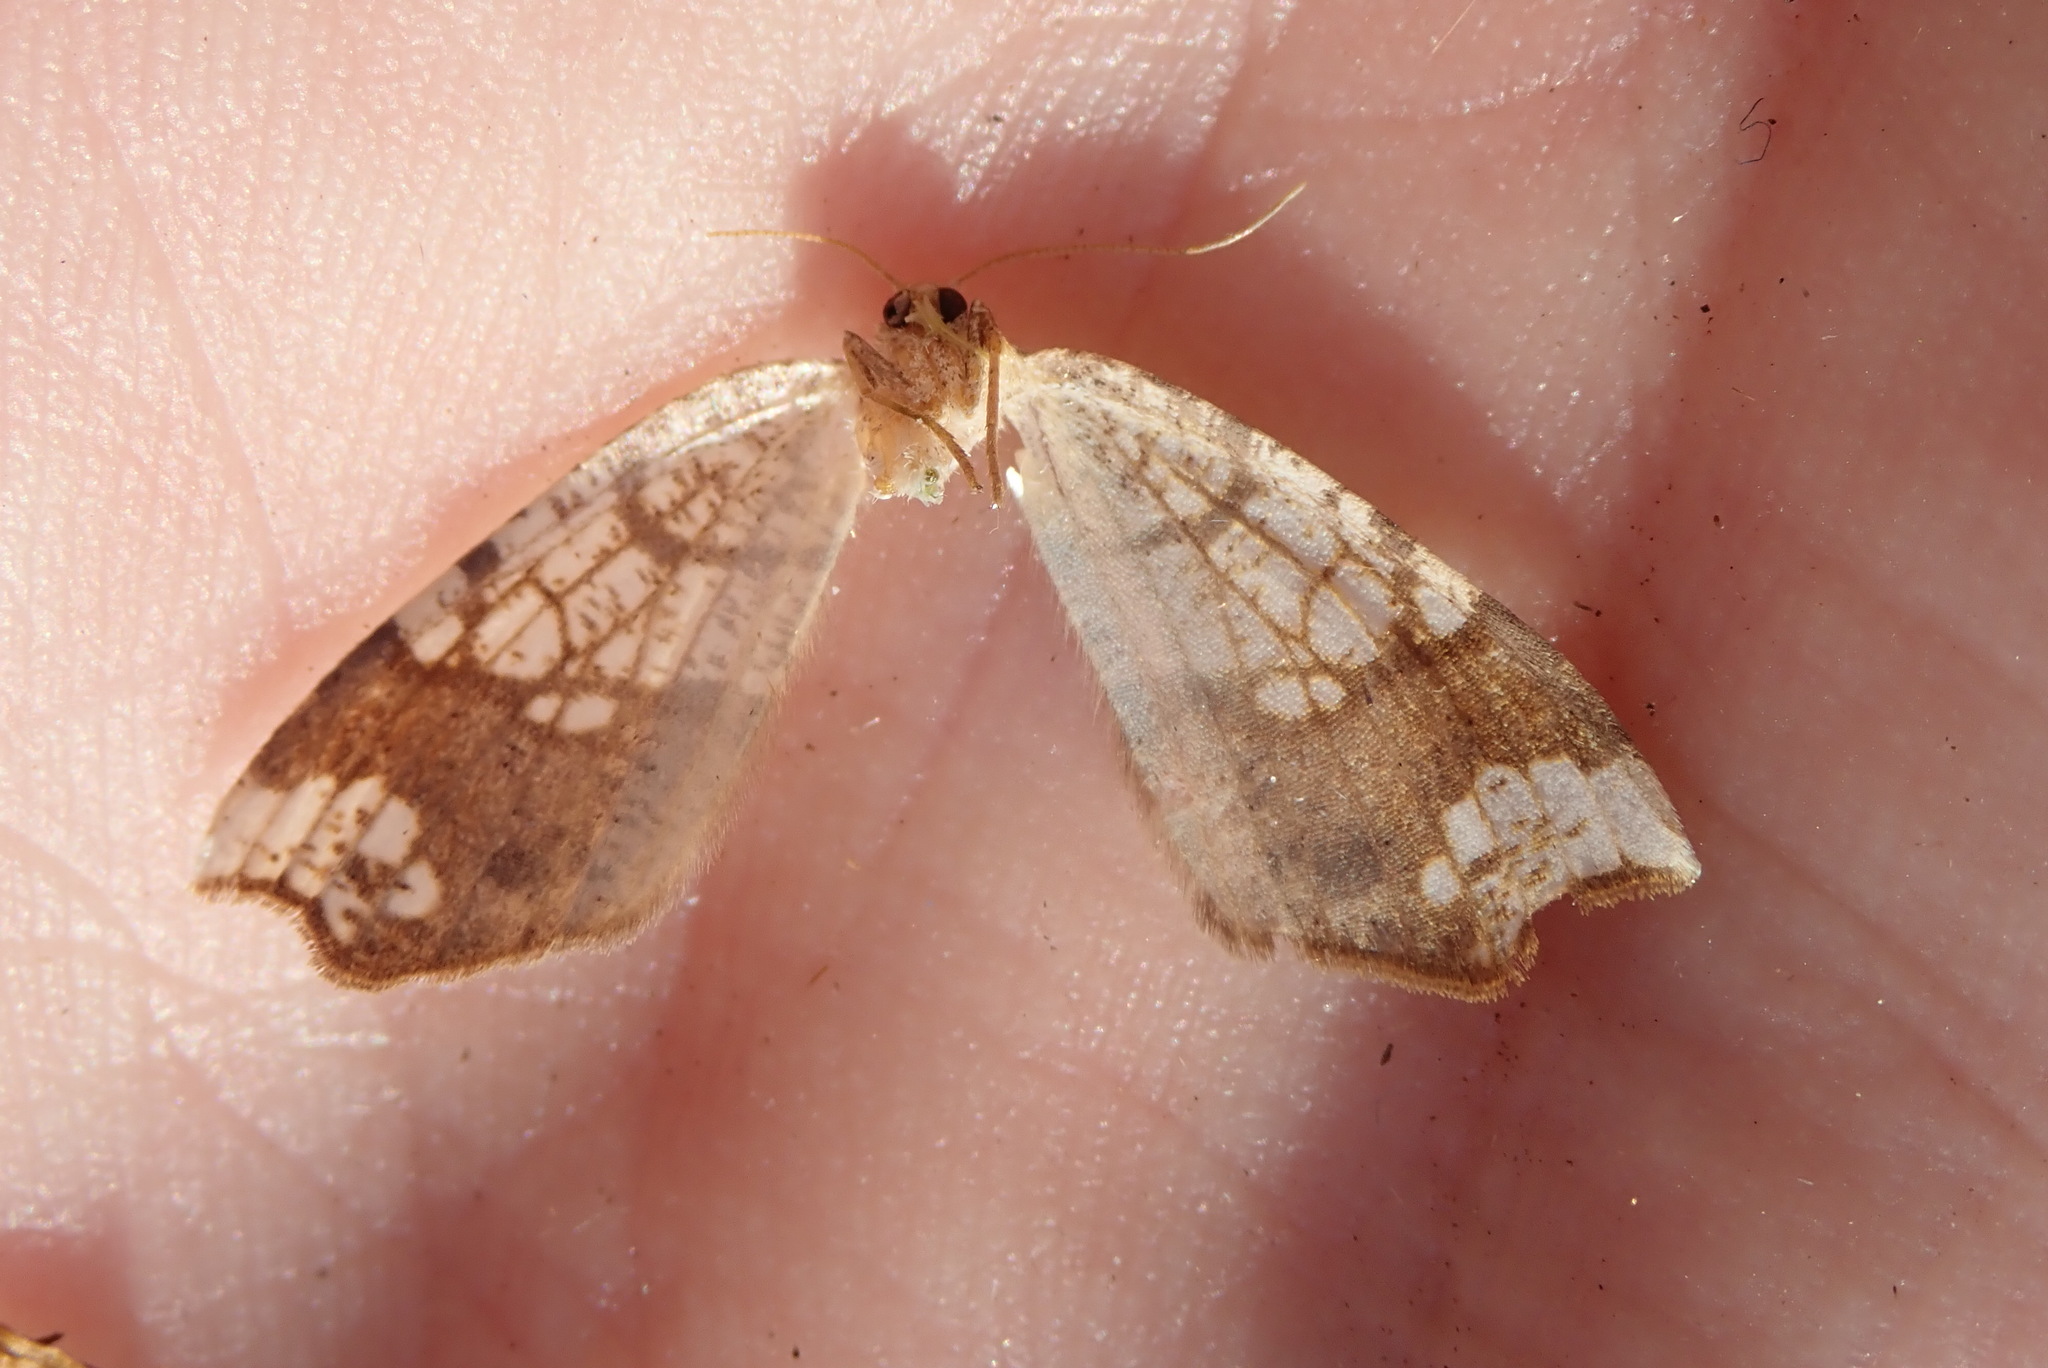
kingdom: Animalia
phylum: Arthropoda
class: Insecta
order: Lepidoptera
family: Geometridae
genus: Nematocampa
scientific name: Nematocampa resistaria
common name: Horned spanworm moth
